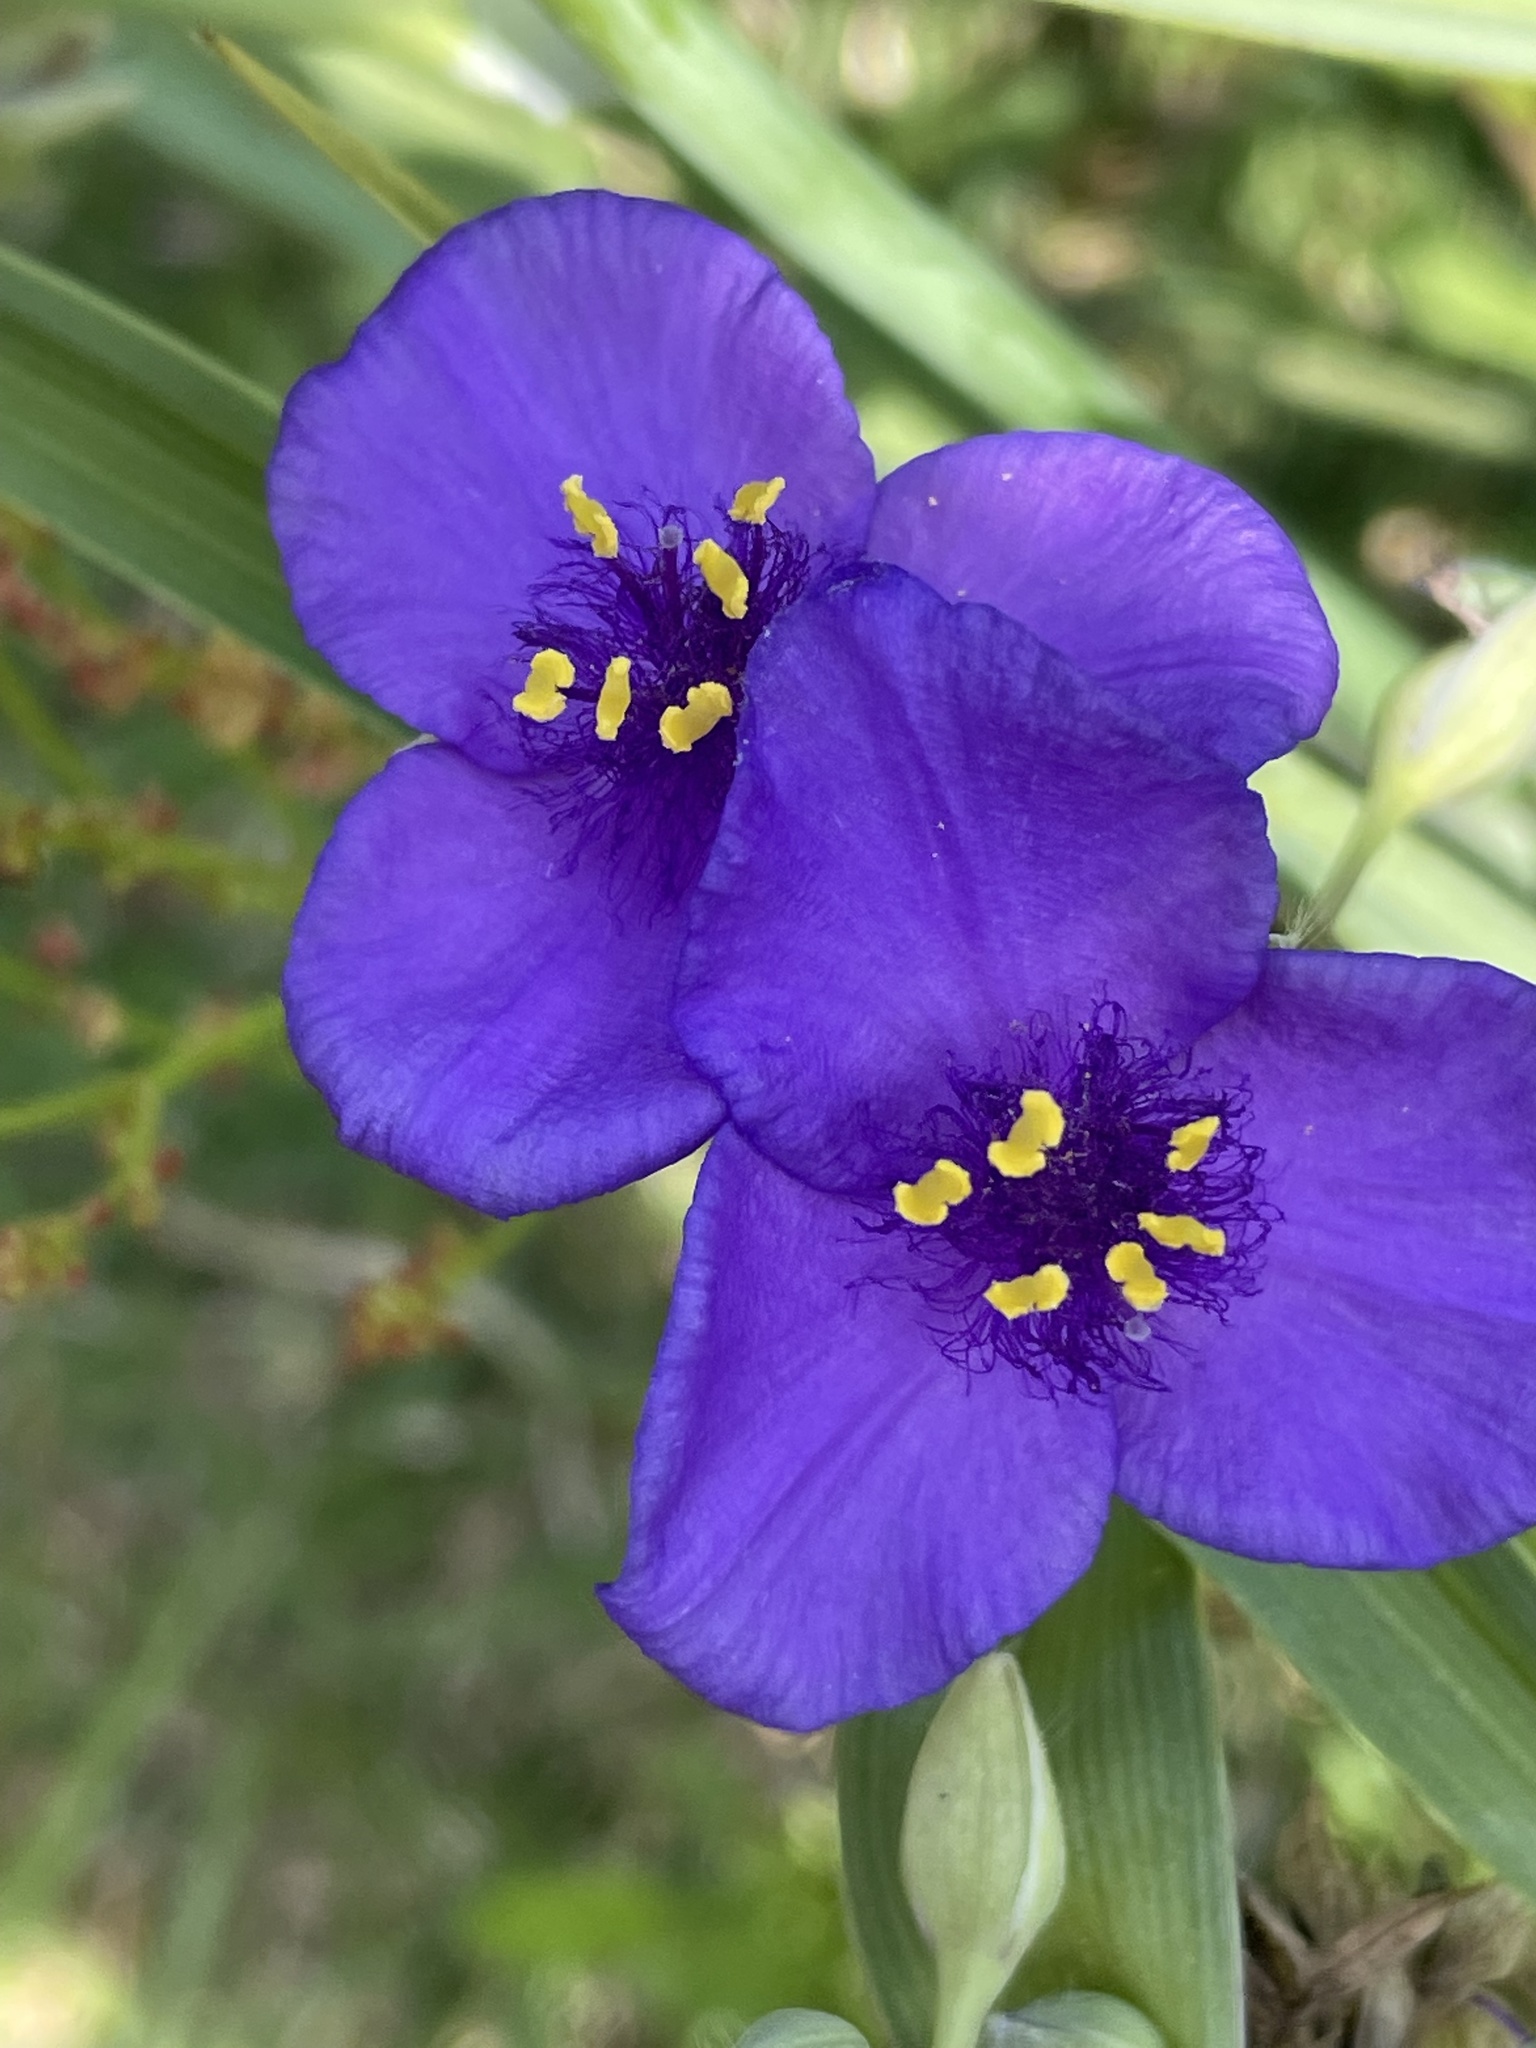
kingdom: Plantae
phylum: Tracheophyta
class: Liliopsida
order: Commelinales
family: Commelinaceae
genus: Tradescantia
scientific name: Tradescantia ohiensis
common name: Ohio spiderwort
